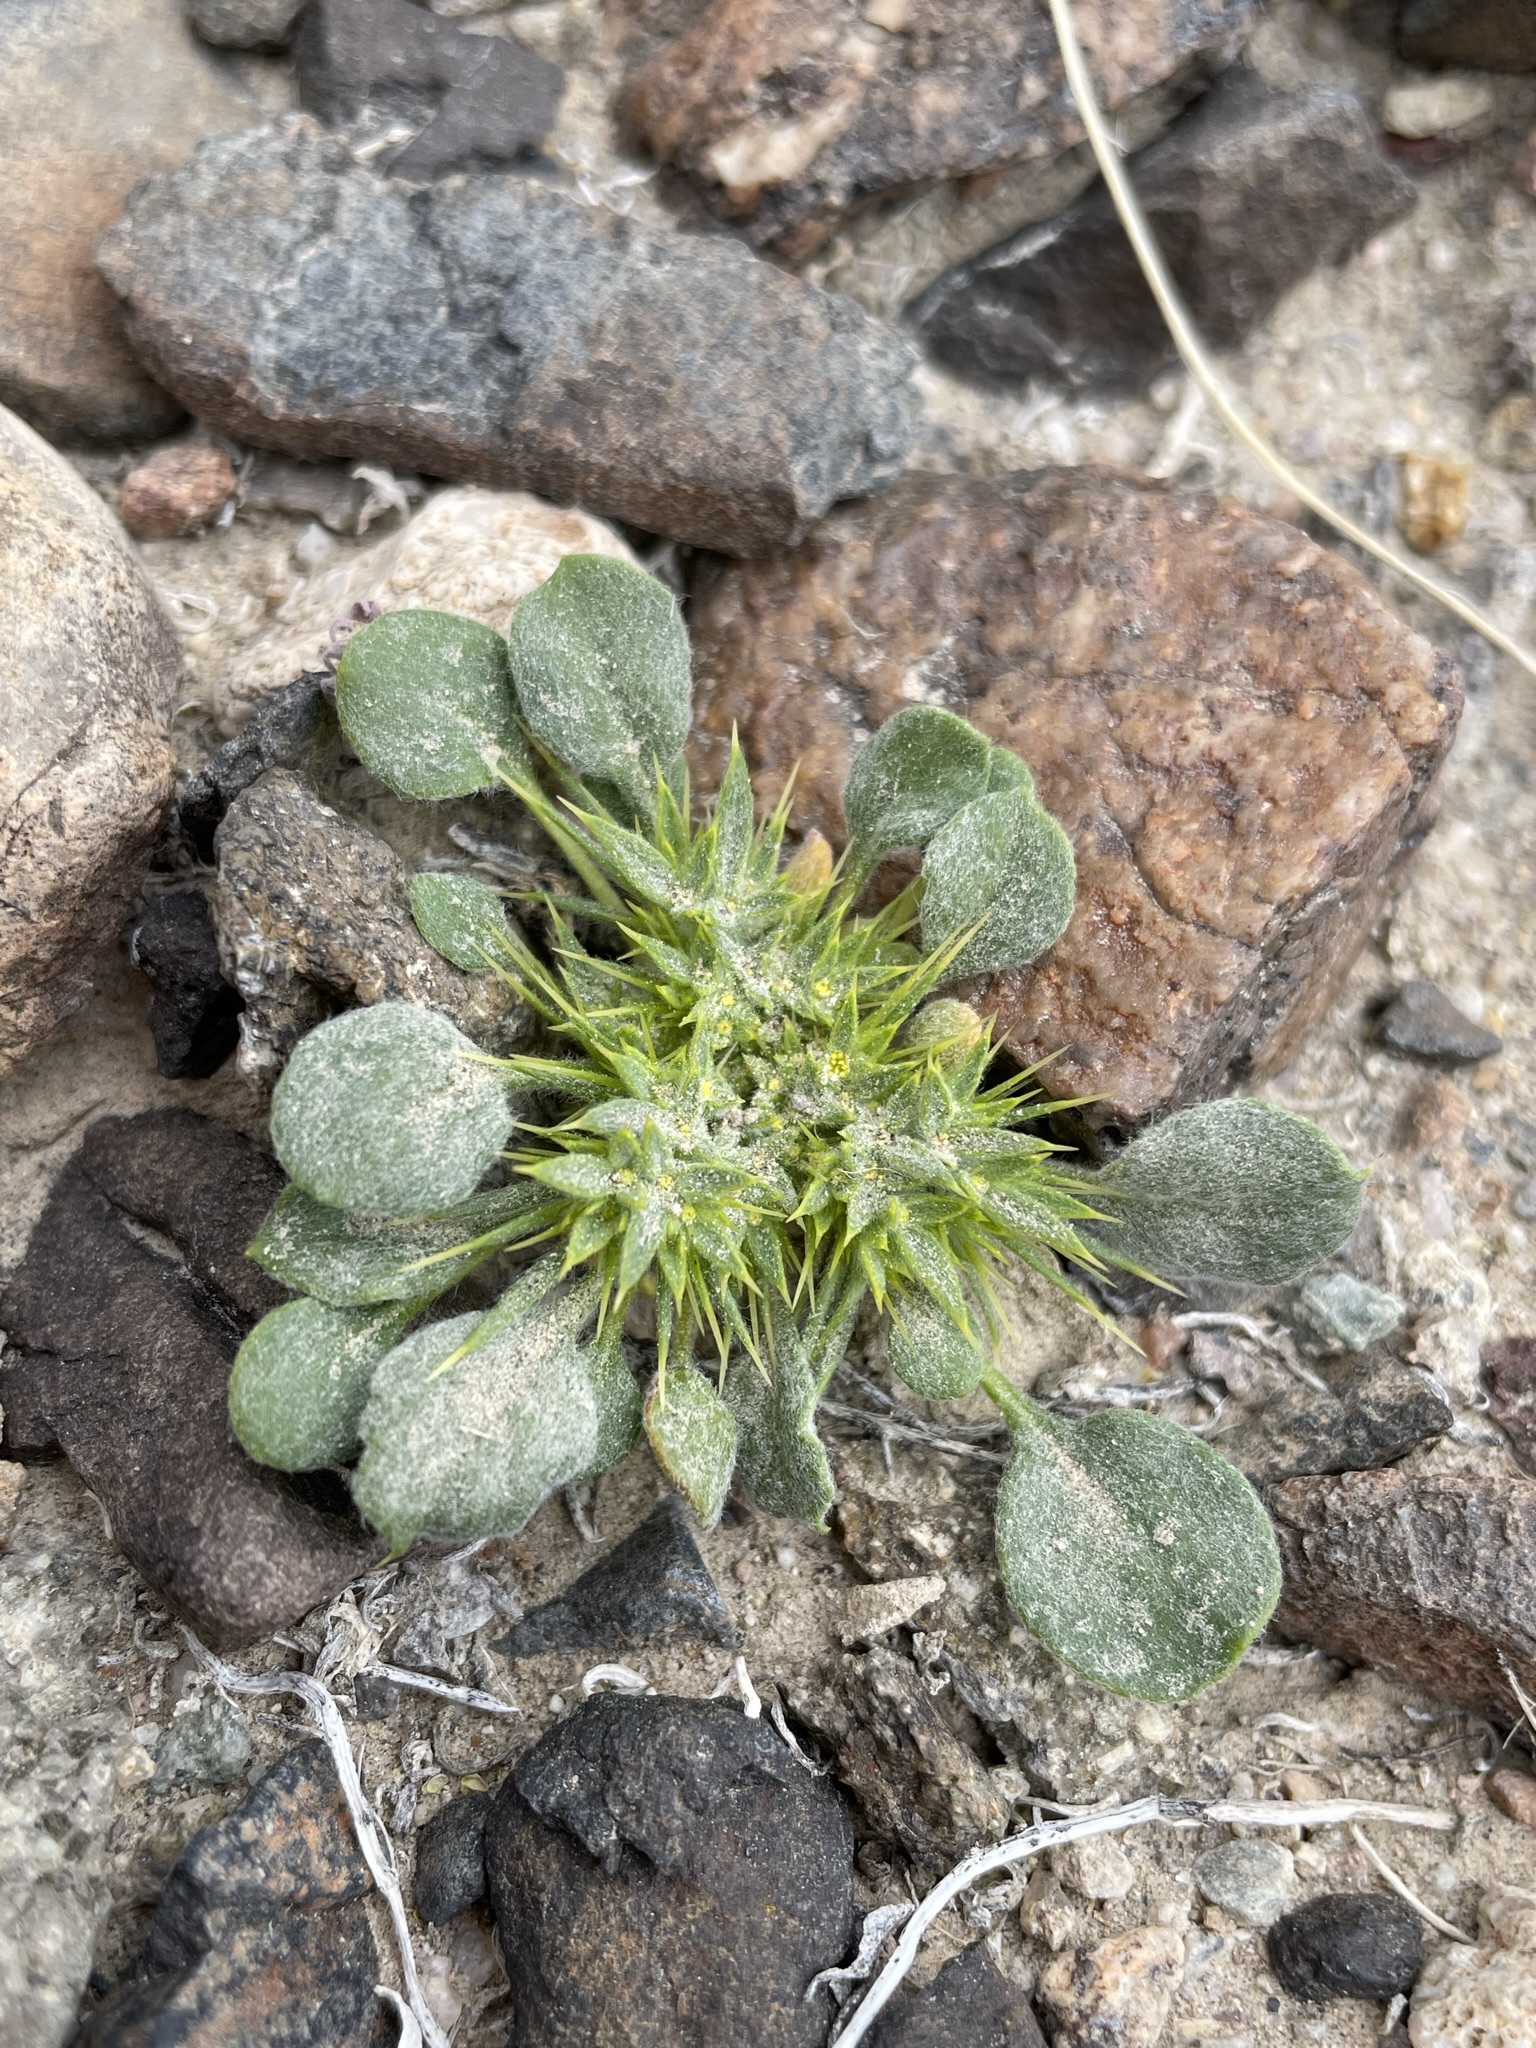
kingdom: Plantae
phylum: Tracheophyta
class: Magnoliopsida
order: Caryophyllales
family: Polygonaceae
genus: Chorizanthe
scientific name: Chorizanthe rigida
